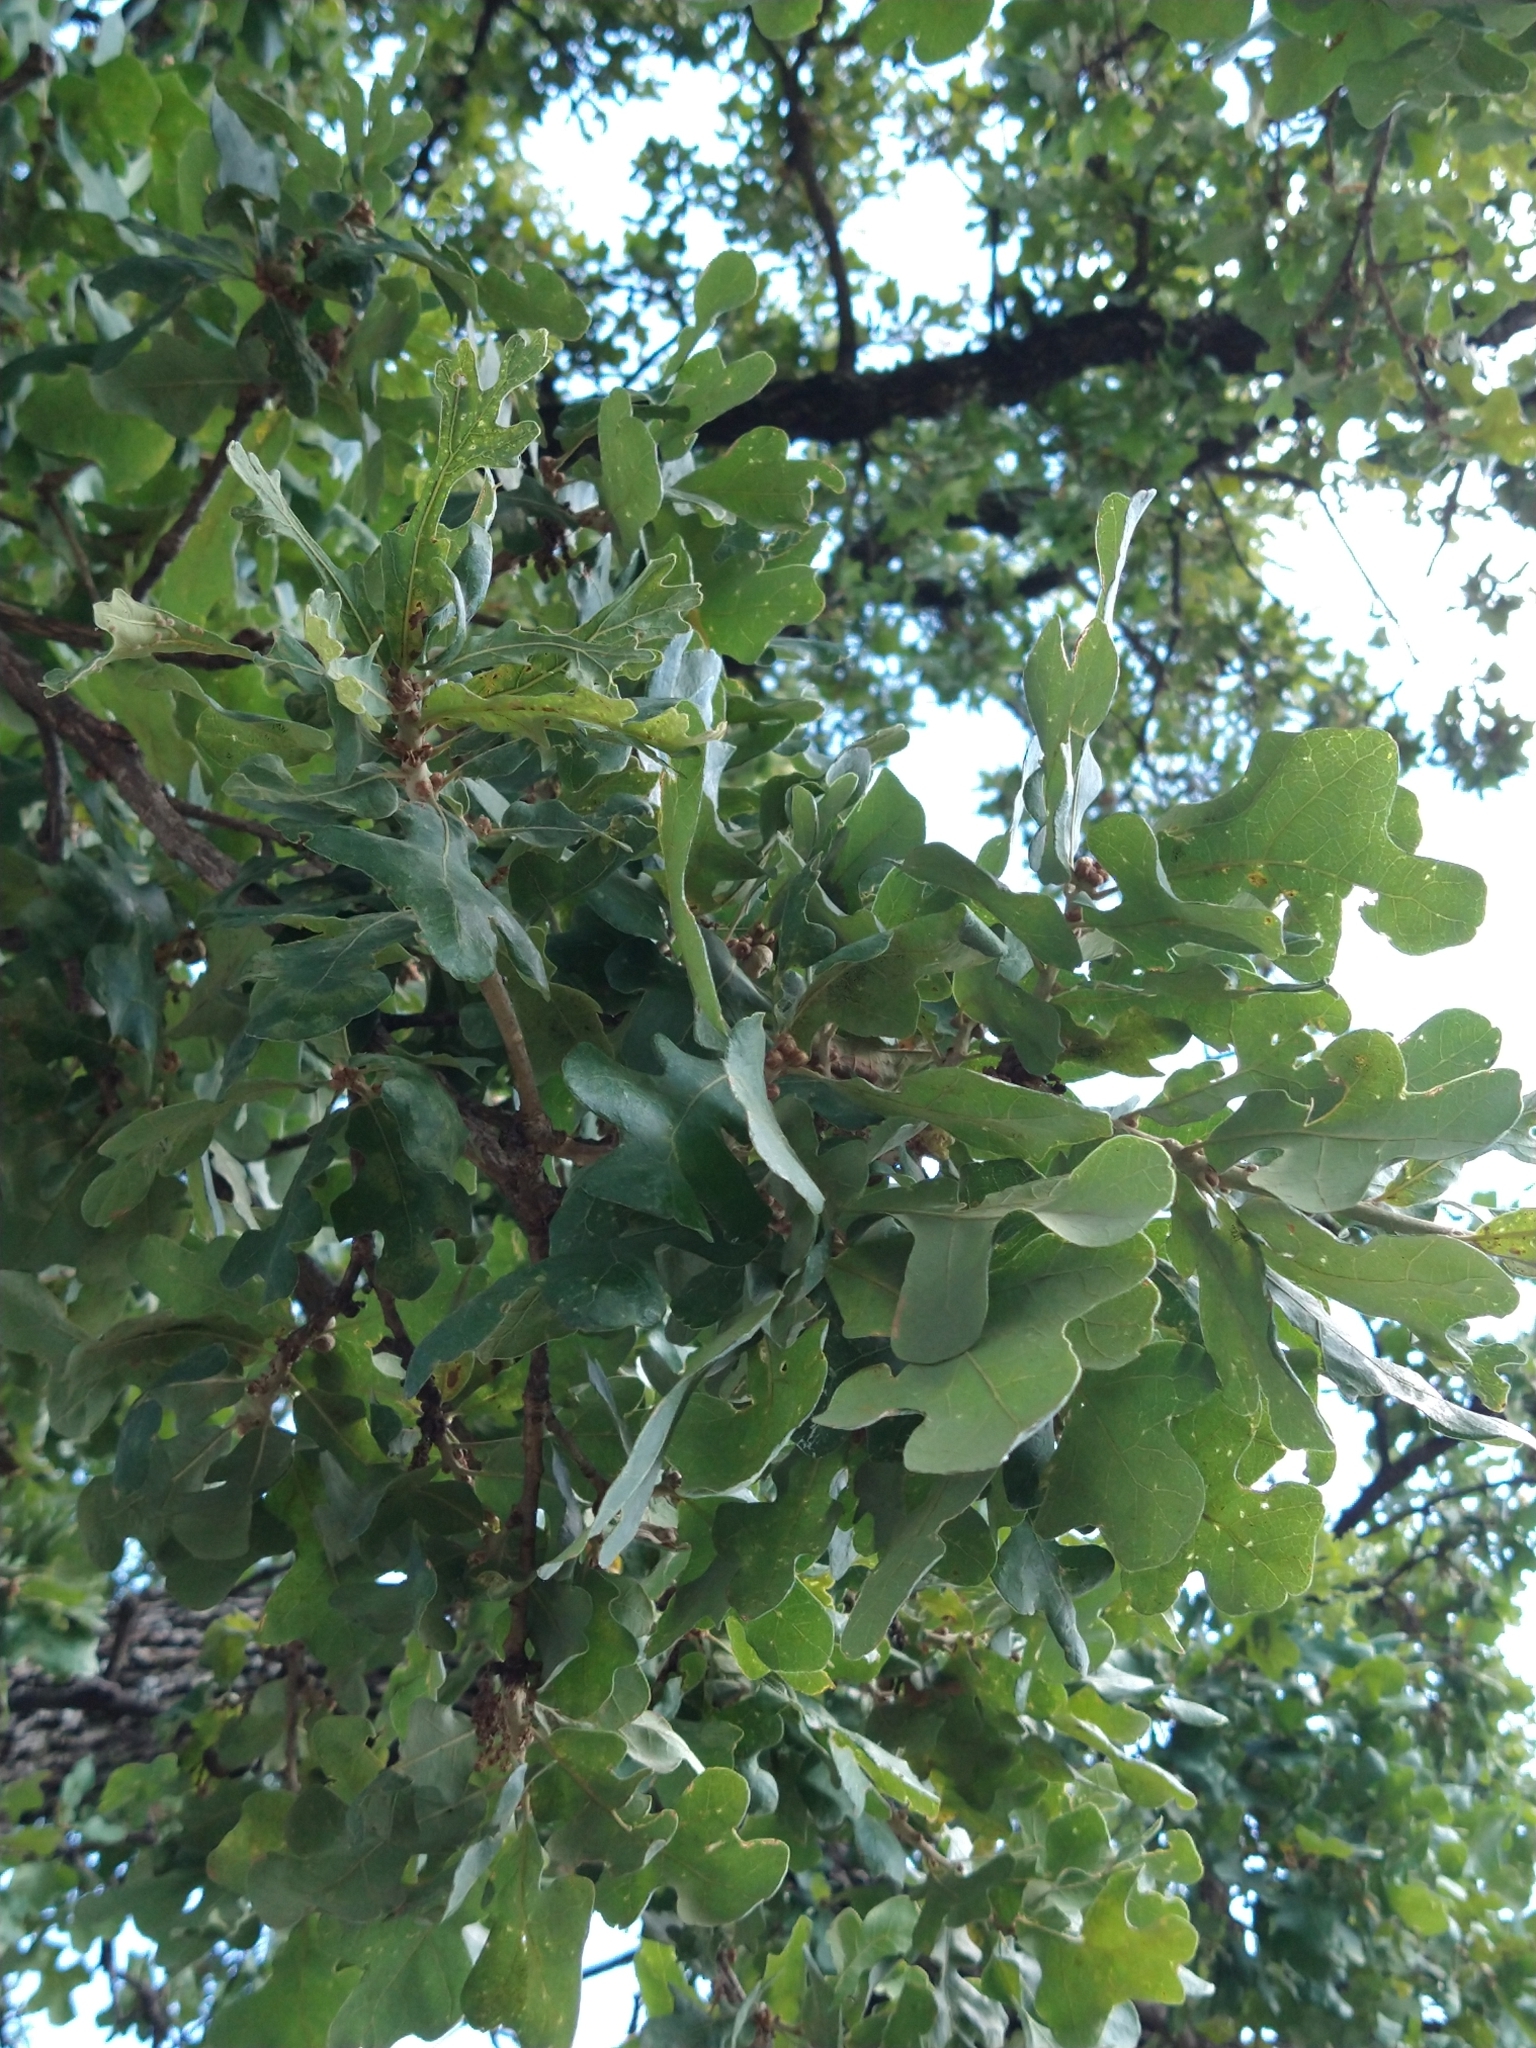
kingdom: Plantae
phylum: Tracheophyta
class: Magnoliopsida
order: Fagales
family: Fagaceae
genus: Quercus
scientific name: Quercus stellata
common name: Post oak
